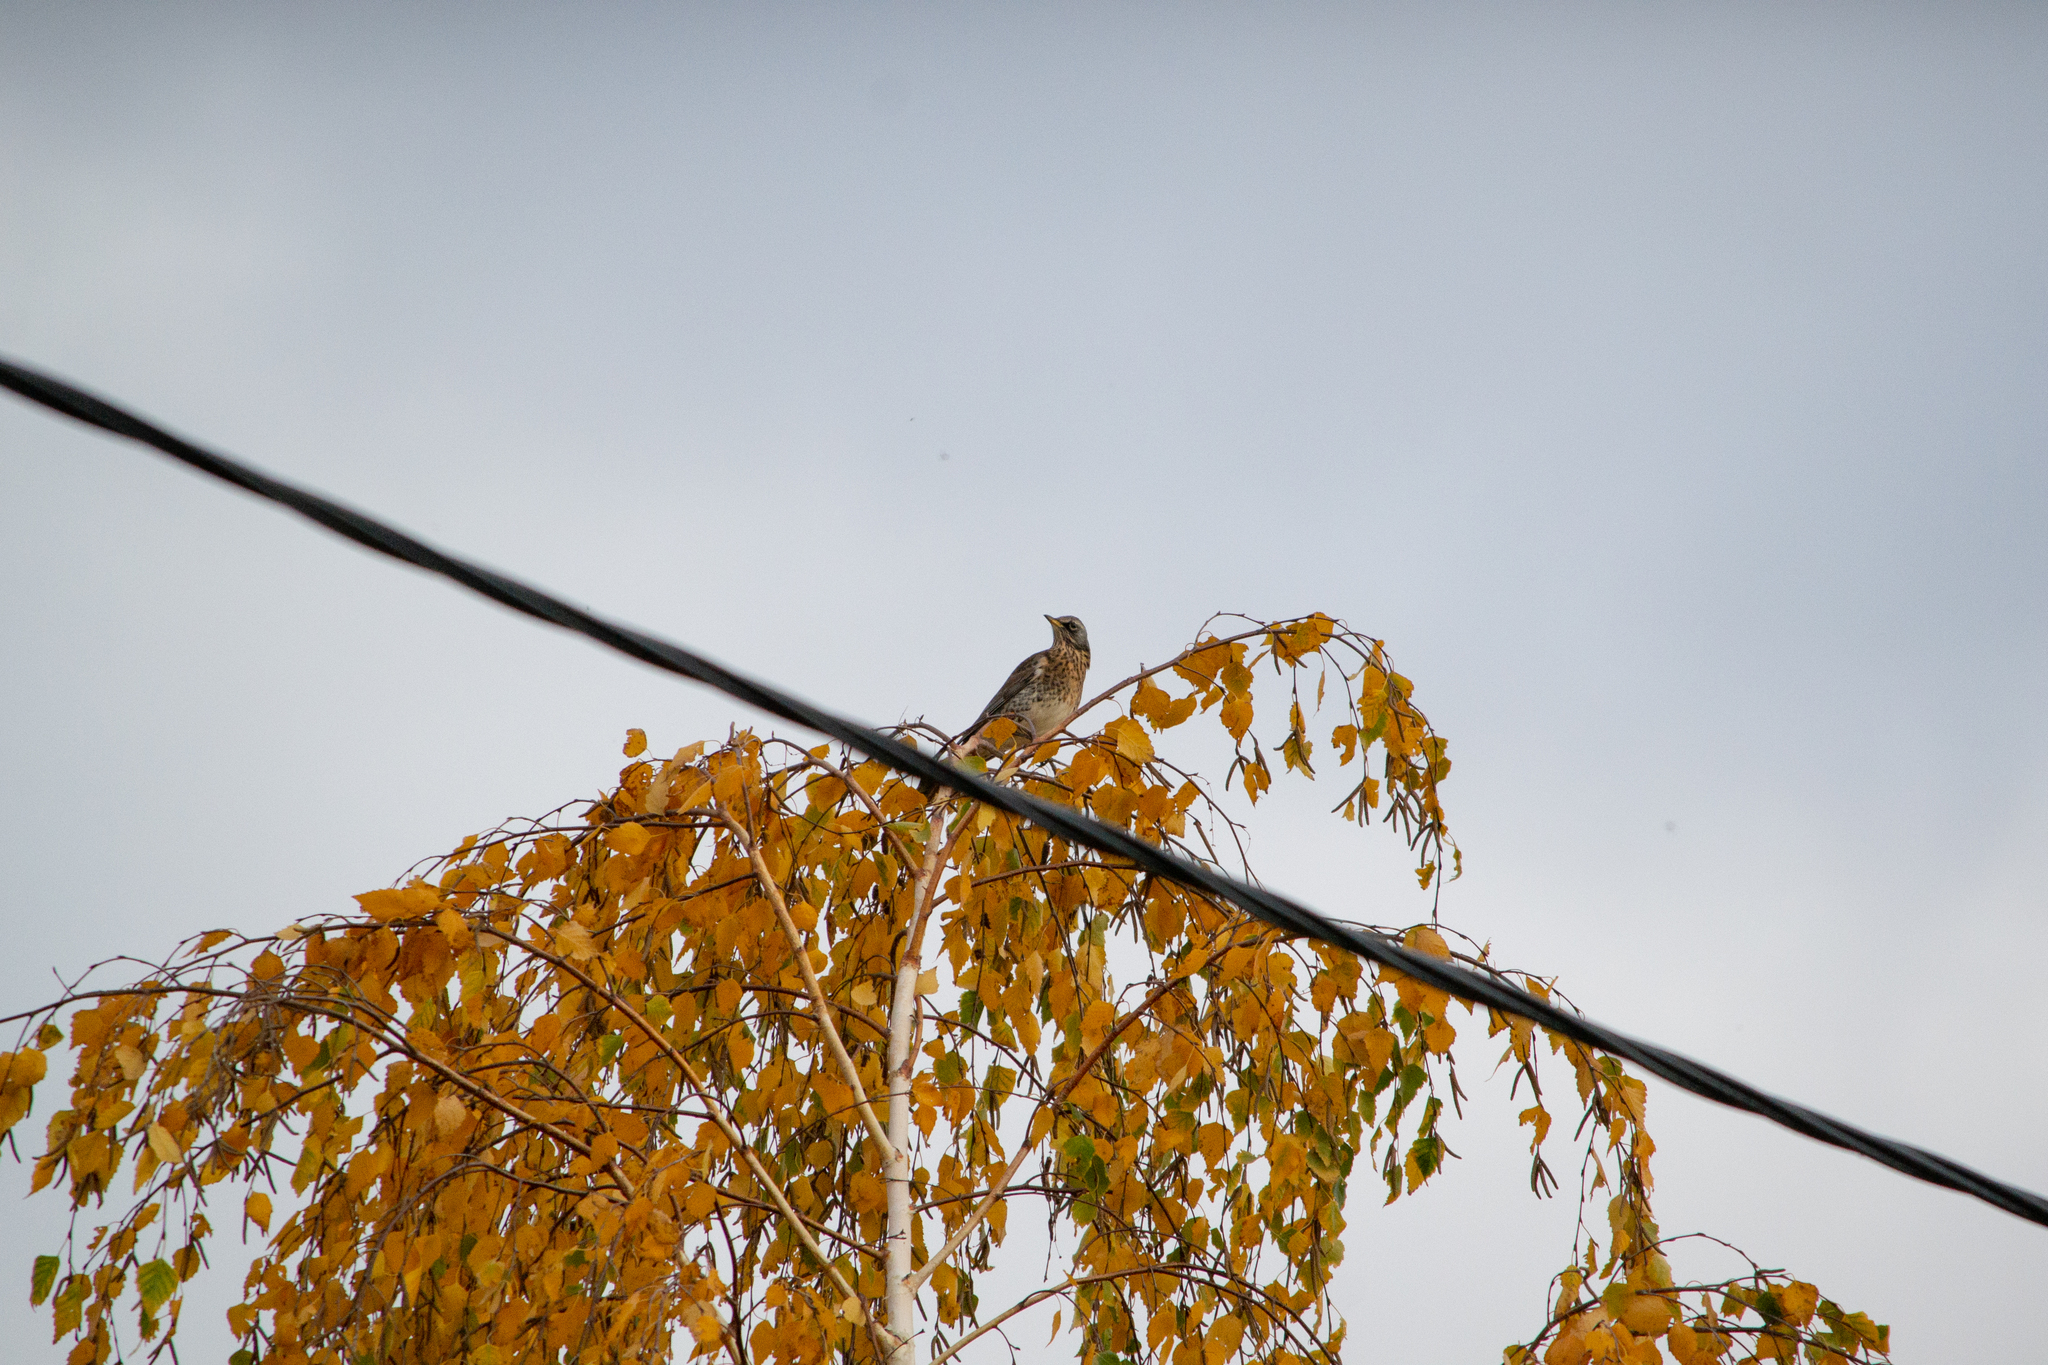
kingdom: Animalia
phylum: Chordata
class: Aves
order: Passeriformes
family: Turdidae
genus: Turdus
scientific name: Turdus pilaris
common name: Fieldfare
